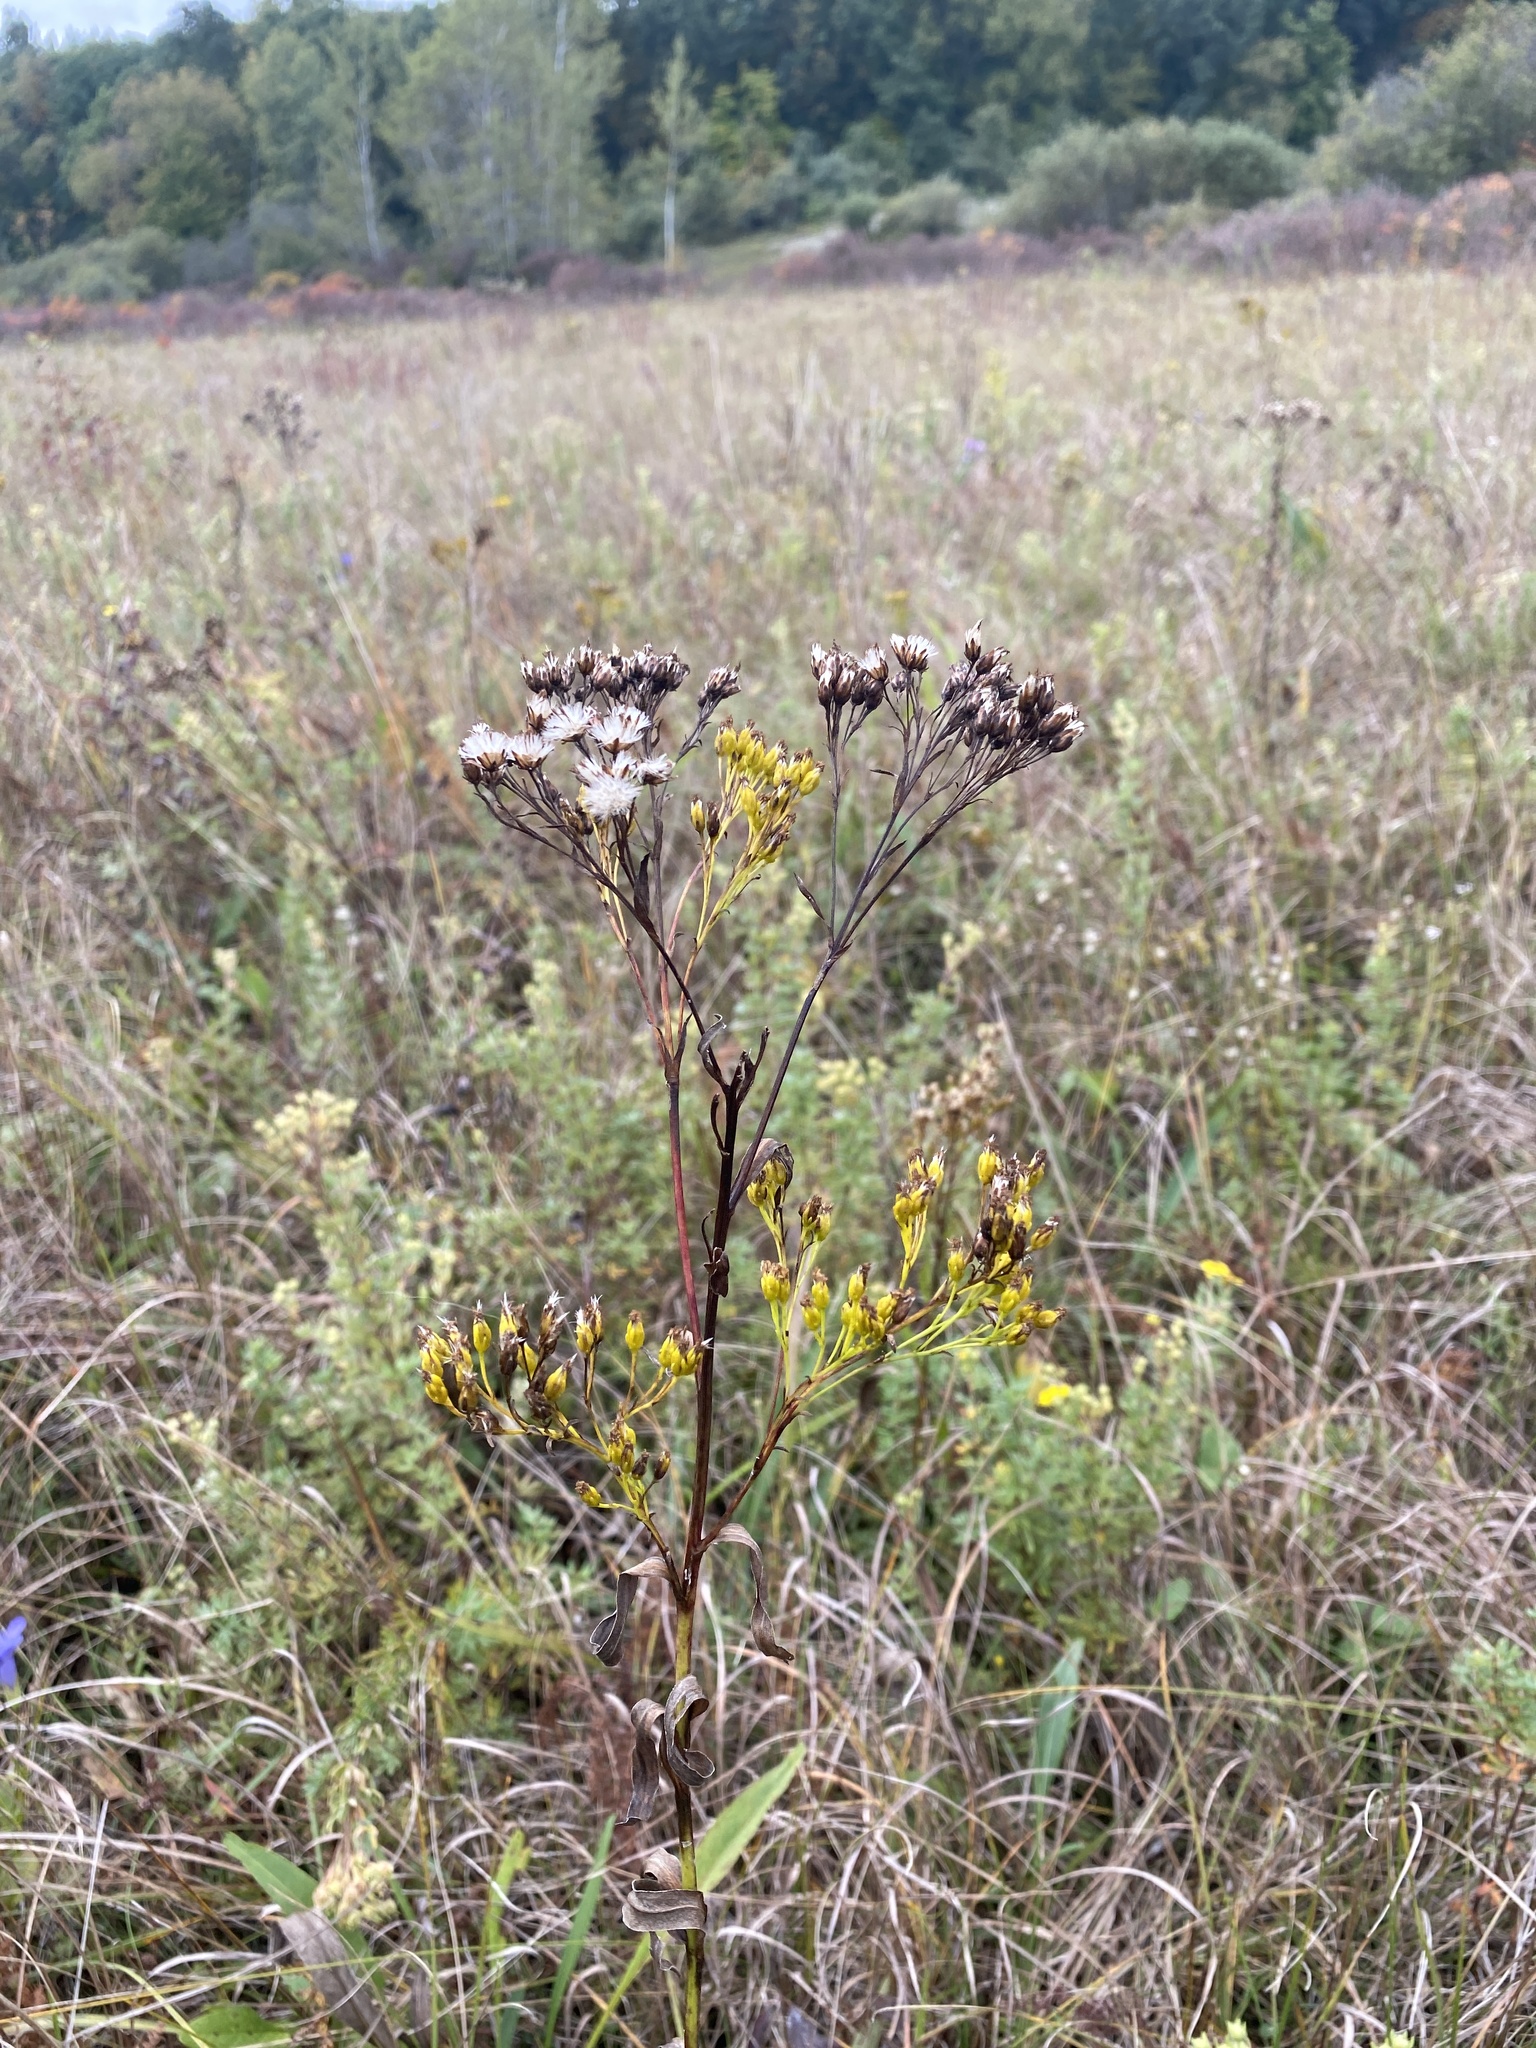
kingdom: Plantae
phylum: Tracheophyta
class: Magnoliopsida
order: Asterales
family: Asteraceae
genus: Solidago
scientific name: Solidago ohioensis
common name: Ohio goldenrod
